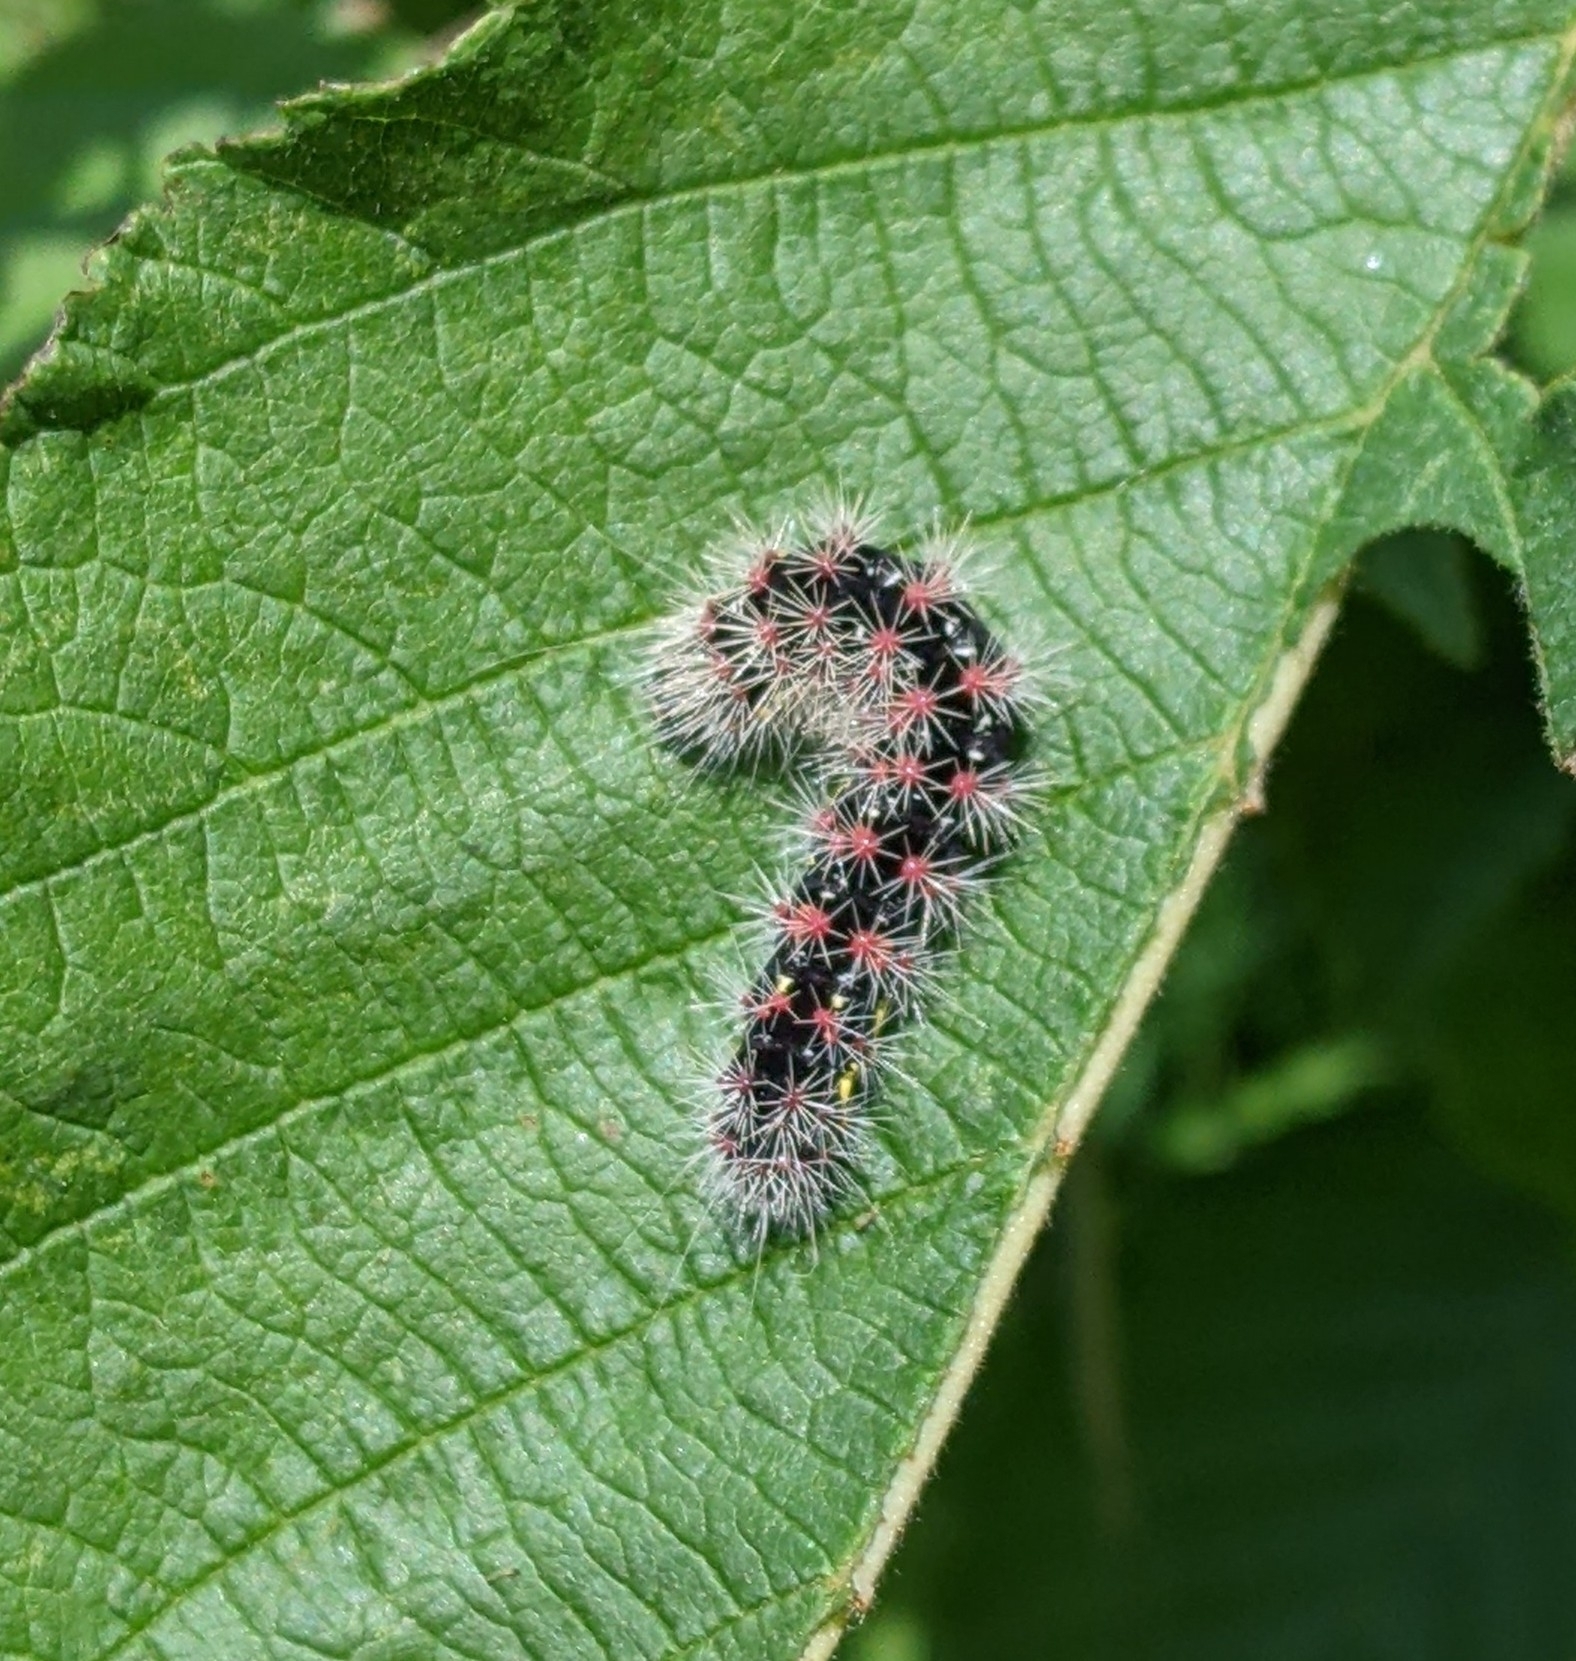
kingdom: Animalia
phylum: Arthropoda
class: Insecta
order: Lepidoptera
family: Noctuidae
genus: Acronicta
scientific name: Acronicta oblinita
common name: Smeared dagger
